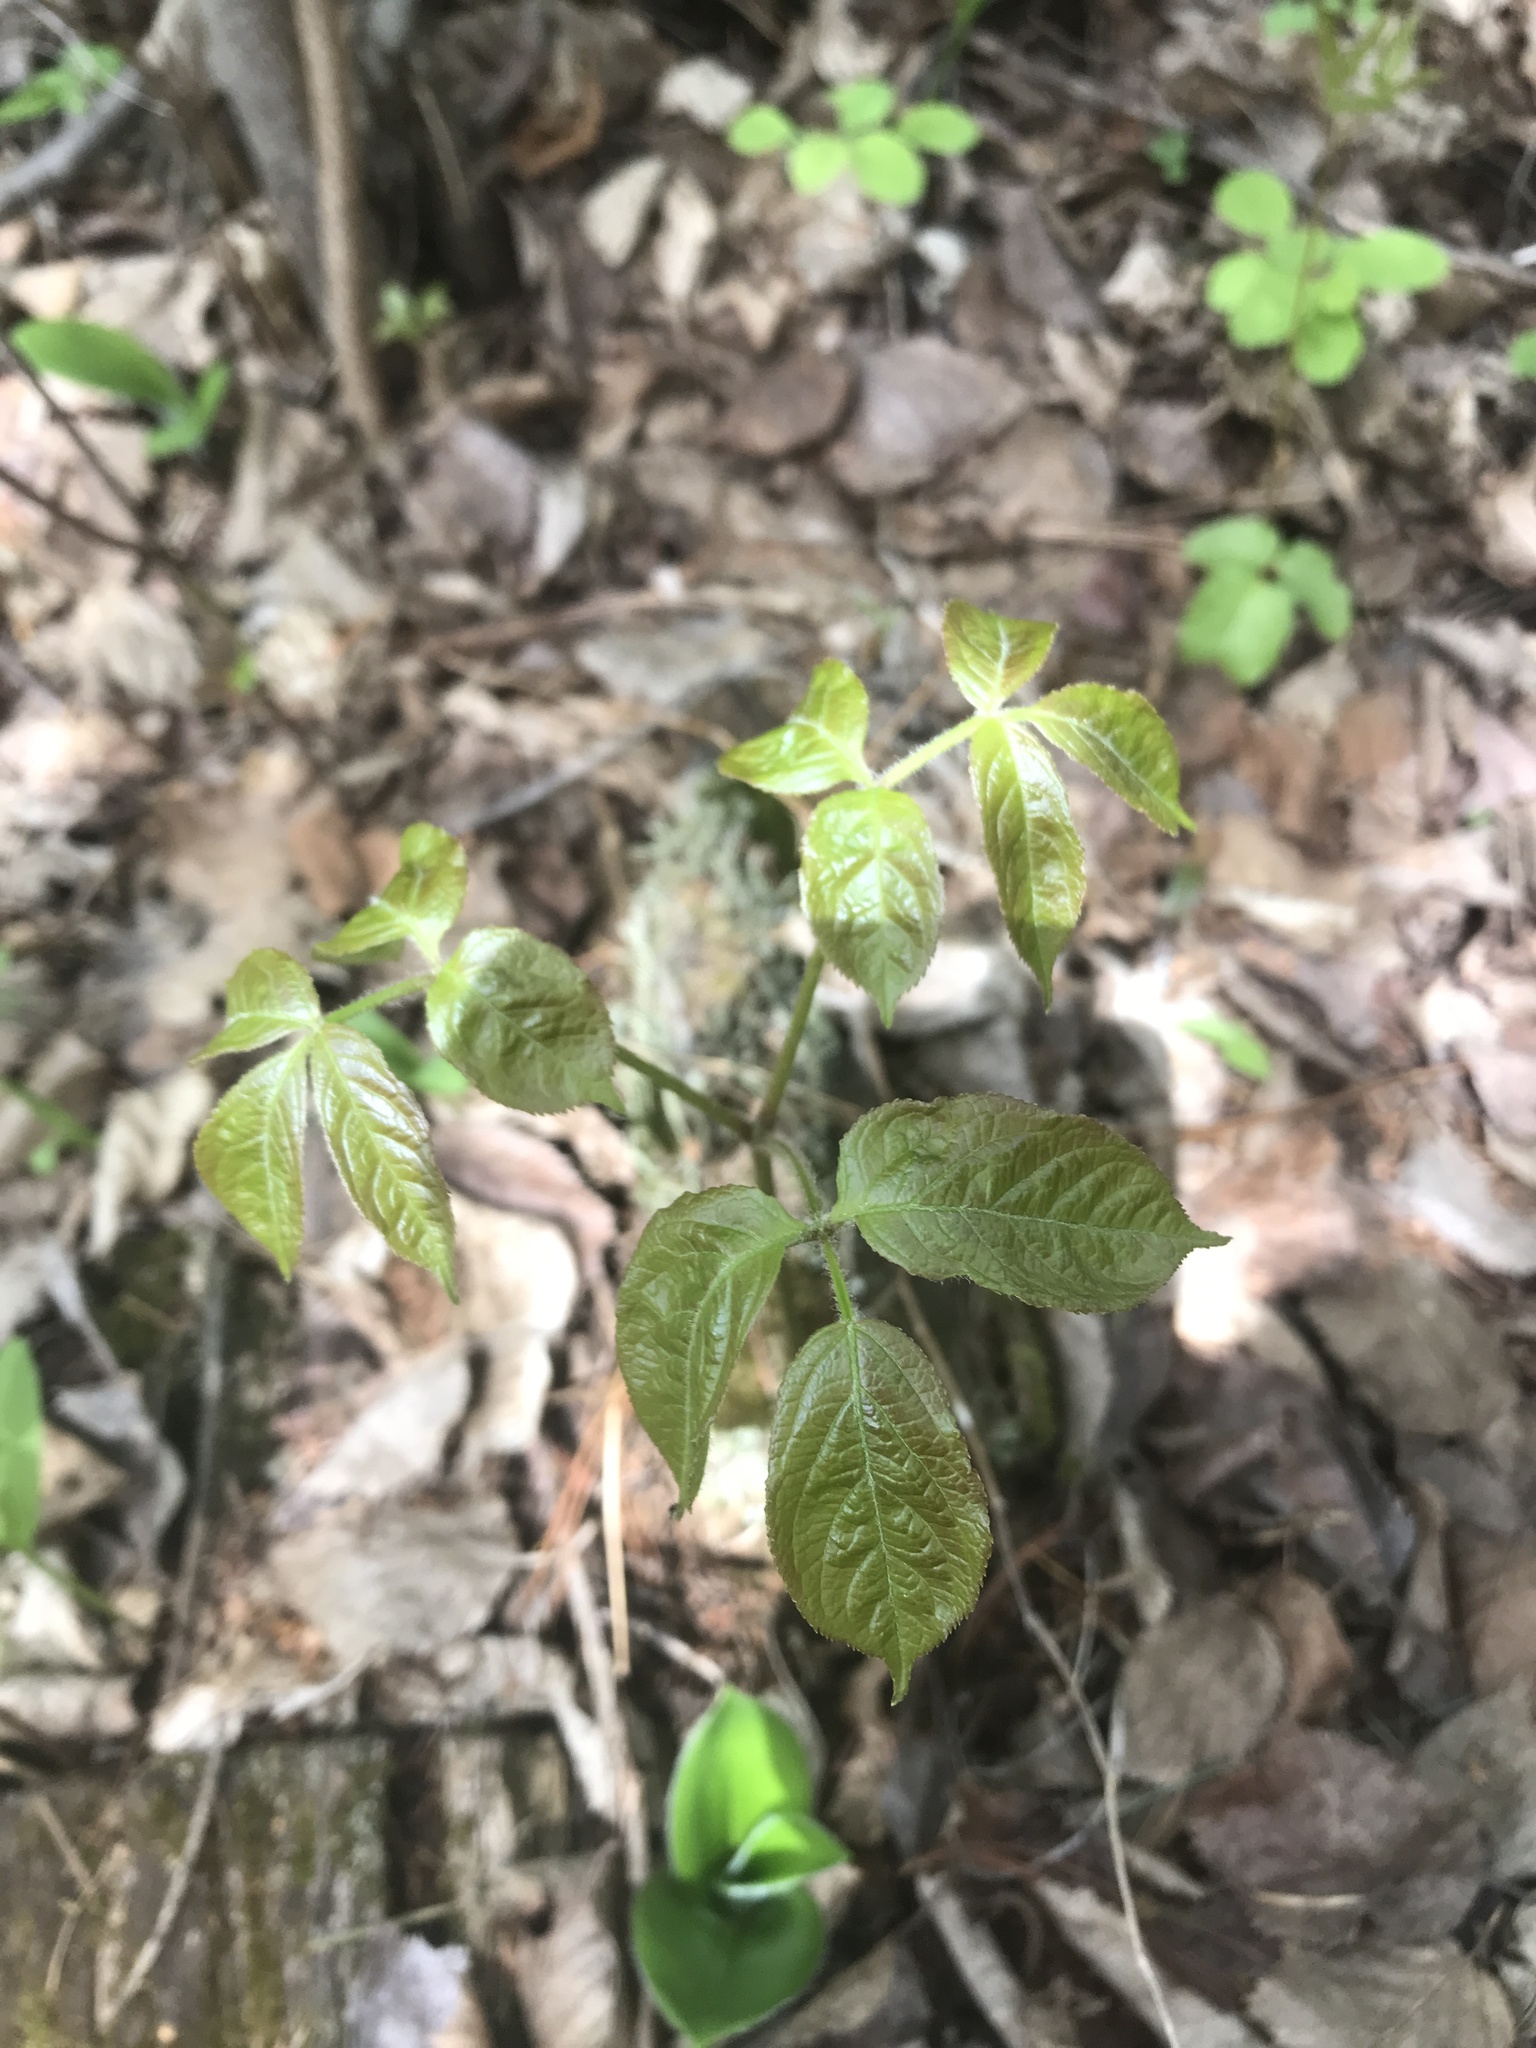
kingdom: Plantae
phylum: Tracheophyta
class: Magnoliopsida
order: Apiales
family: Araliaceae
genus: Aralia
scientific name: Aralia nudicaulis
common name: Wild sarsaparilla
